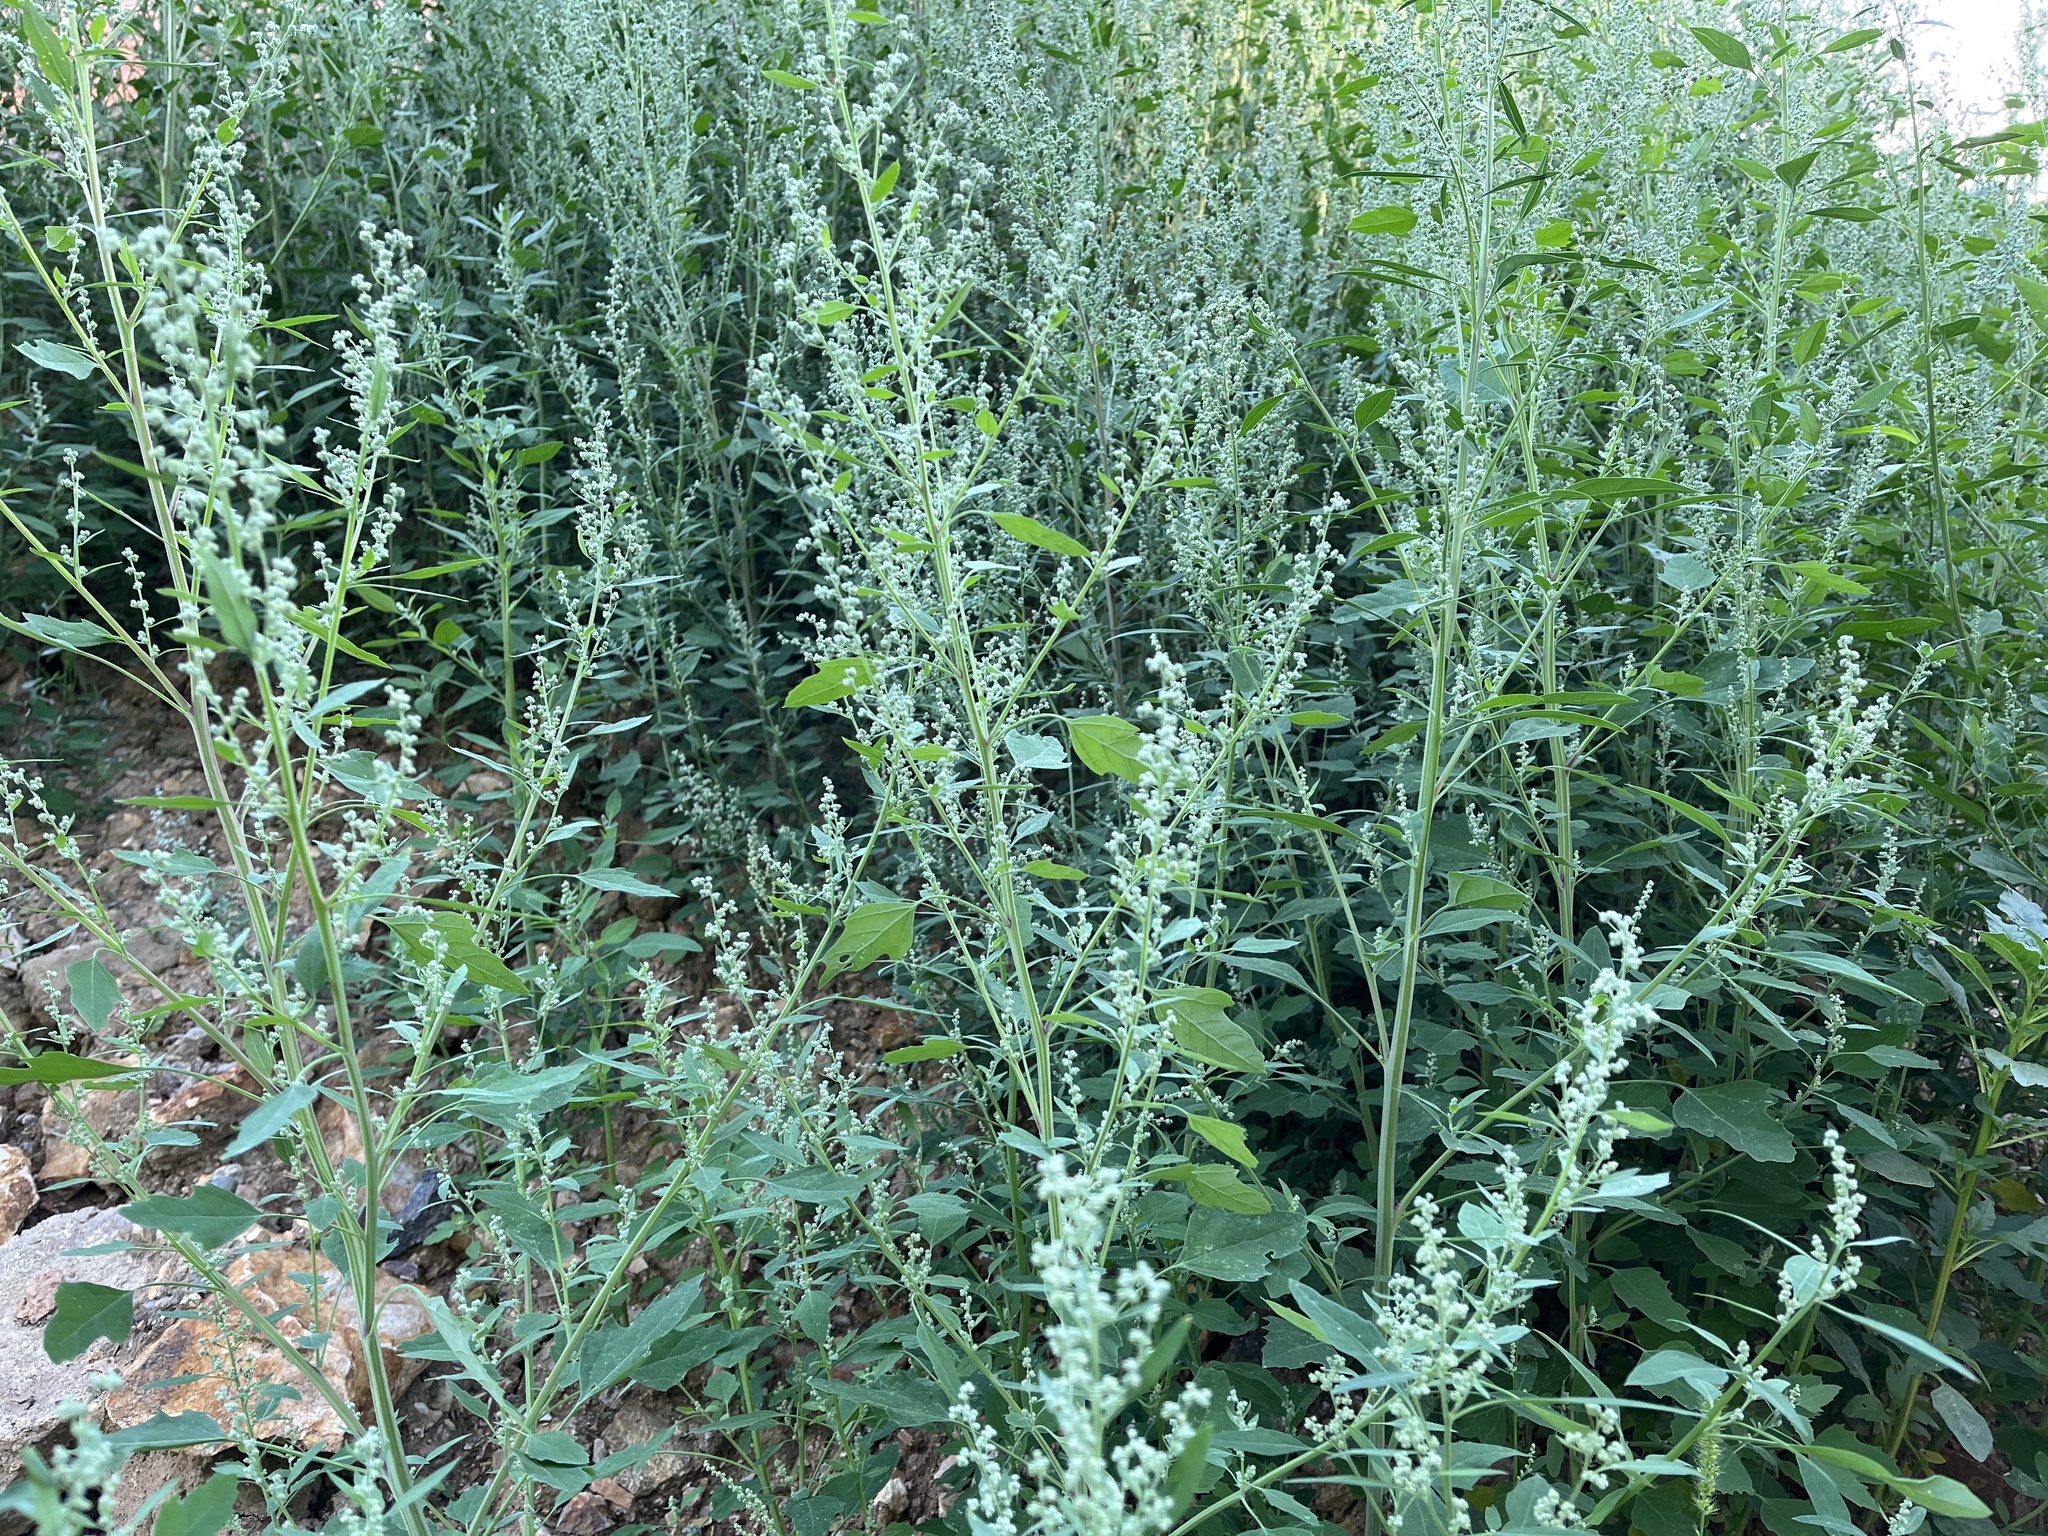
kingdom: Plantae
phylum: Tracheophyta
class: Magnoliopsida
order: Caryophyllales
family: Amaranthaceae
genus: Chenopodium
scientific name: Chenopodium album
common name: Fat-hen
